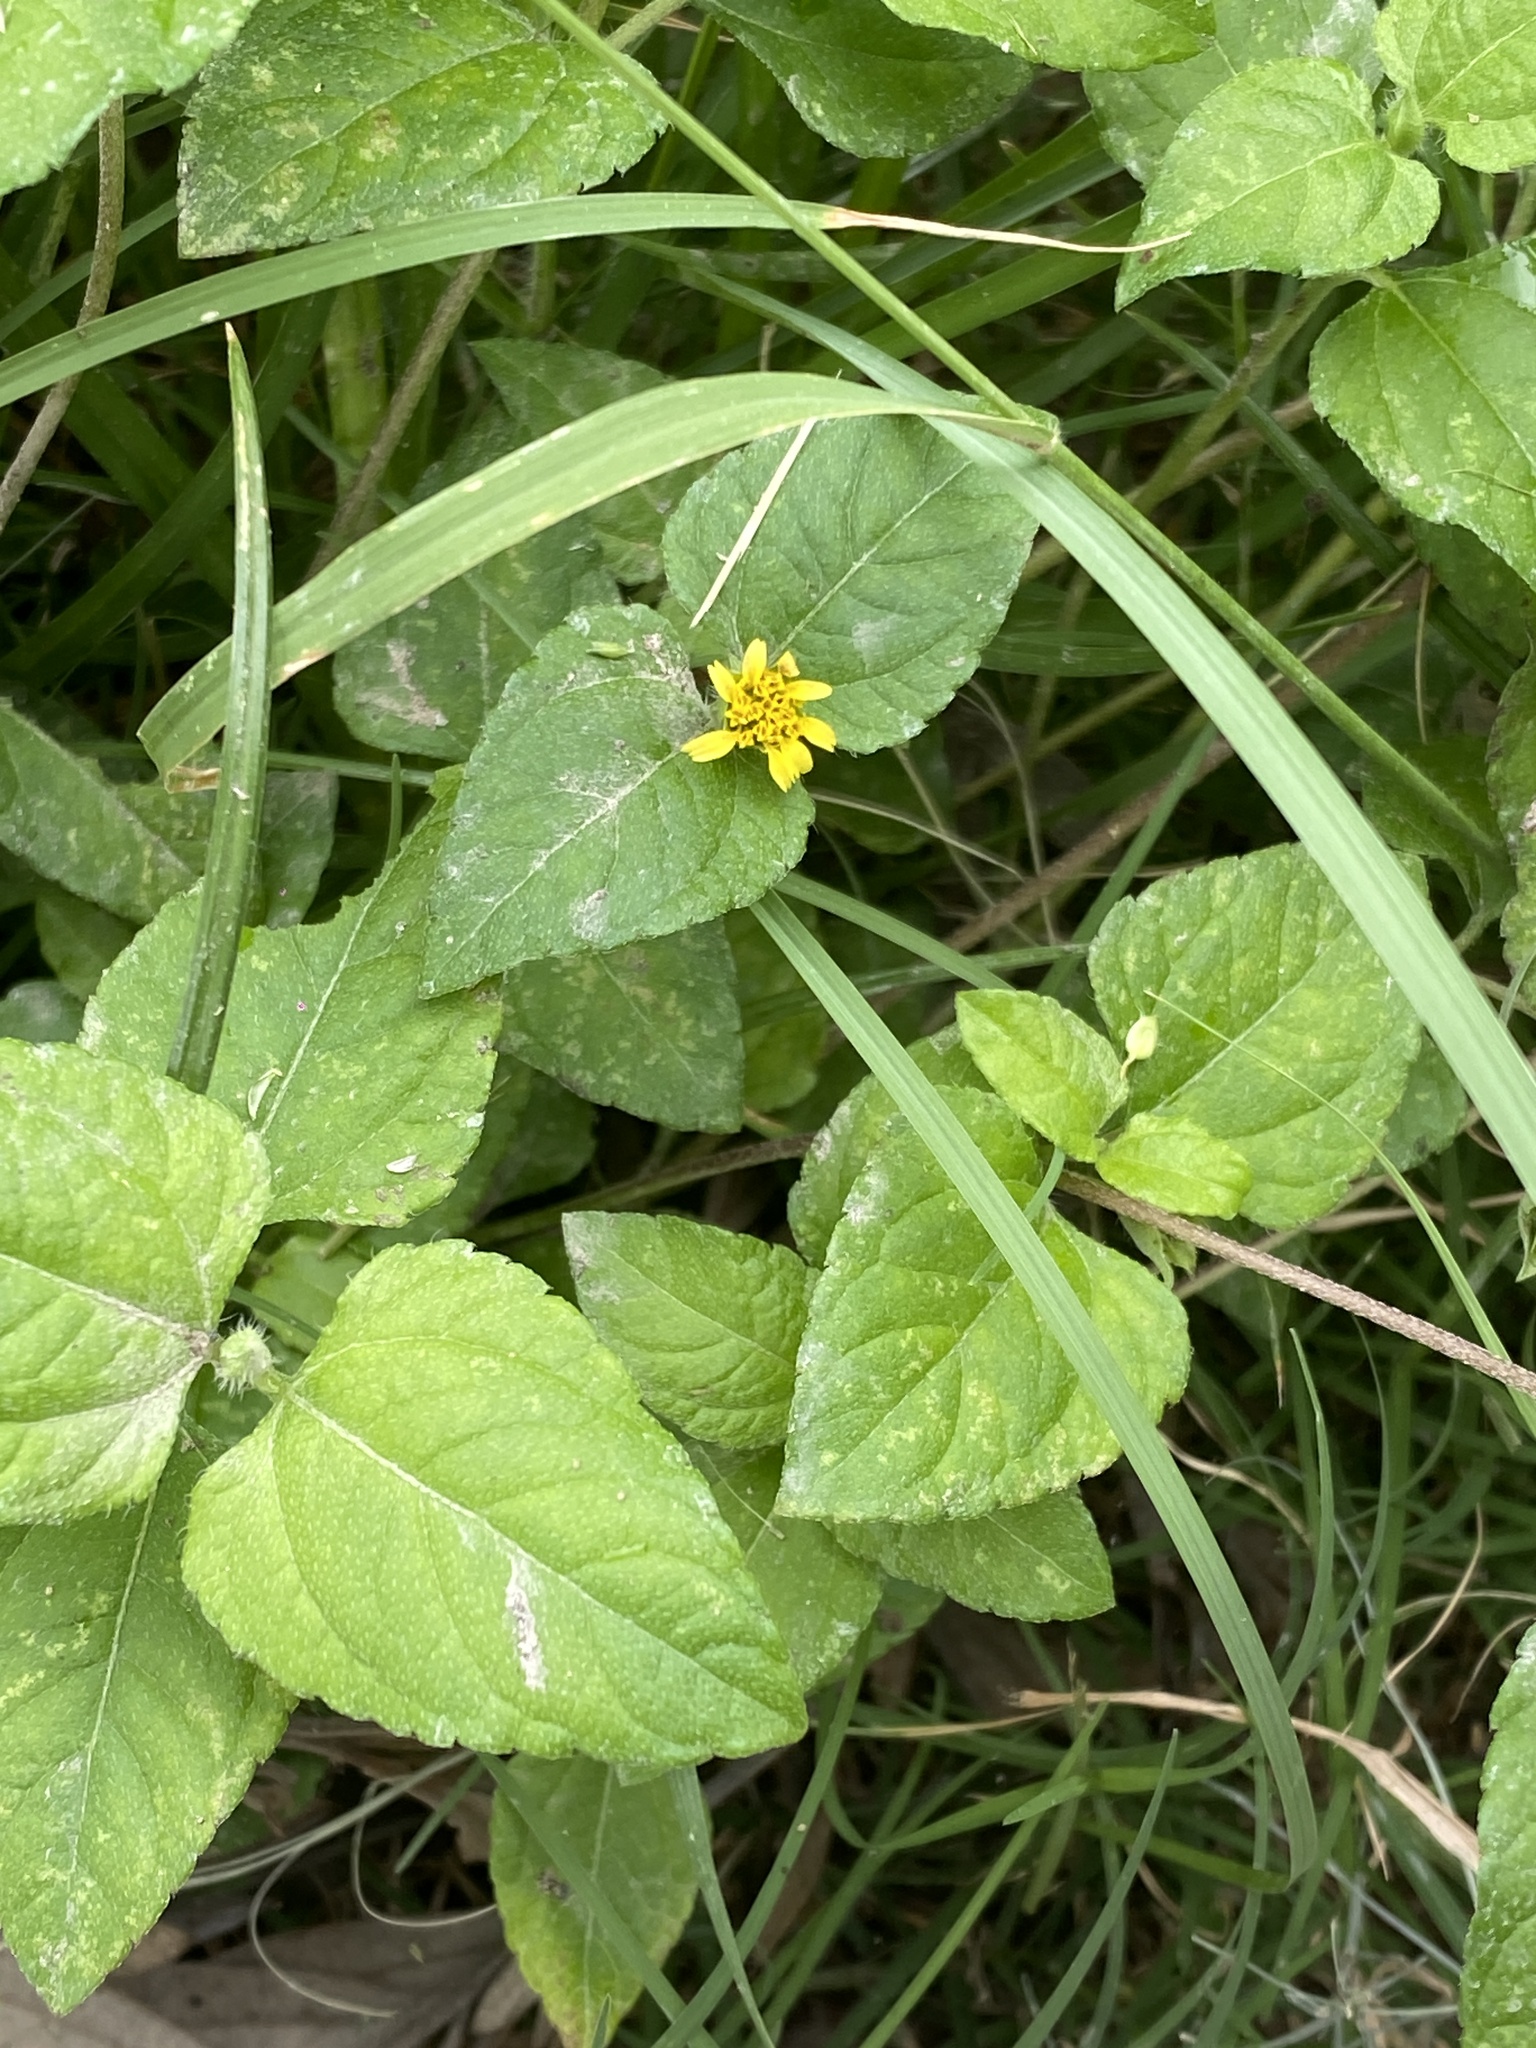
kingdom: Plantae
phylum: Tracheophyta
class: Magnoliopsida
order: Asterales
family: Asteraceae
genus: Calyptocarpus
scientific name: Calyptocarpus vialis
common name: Straggler daisy
